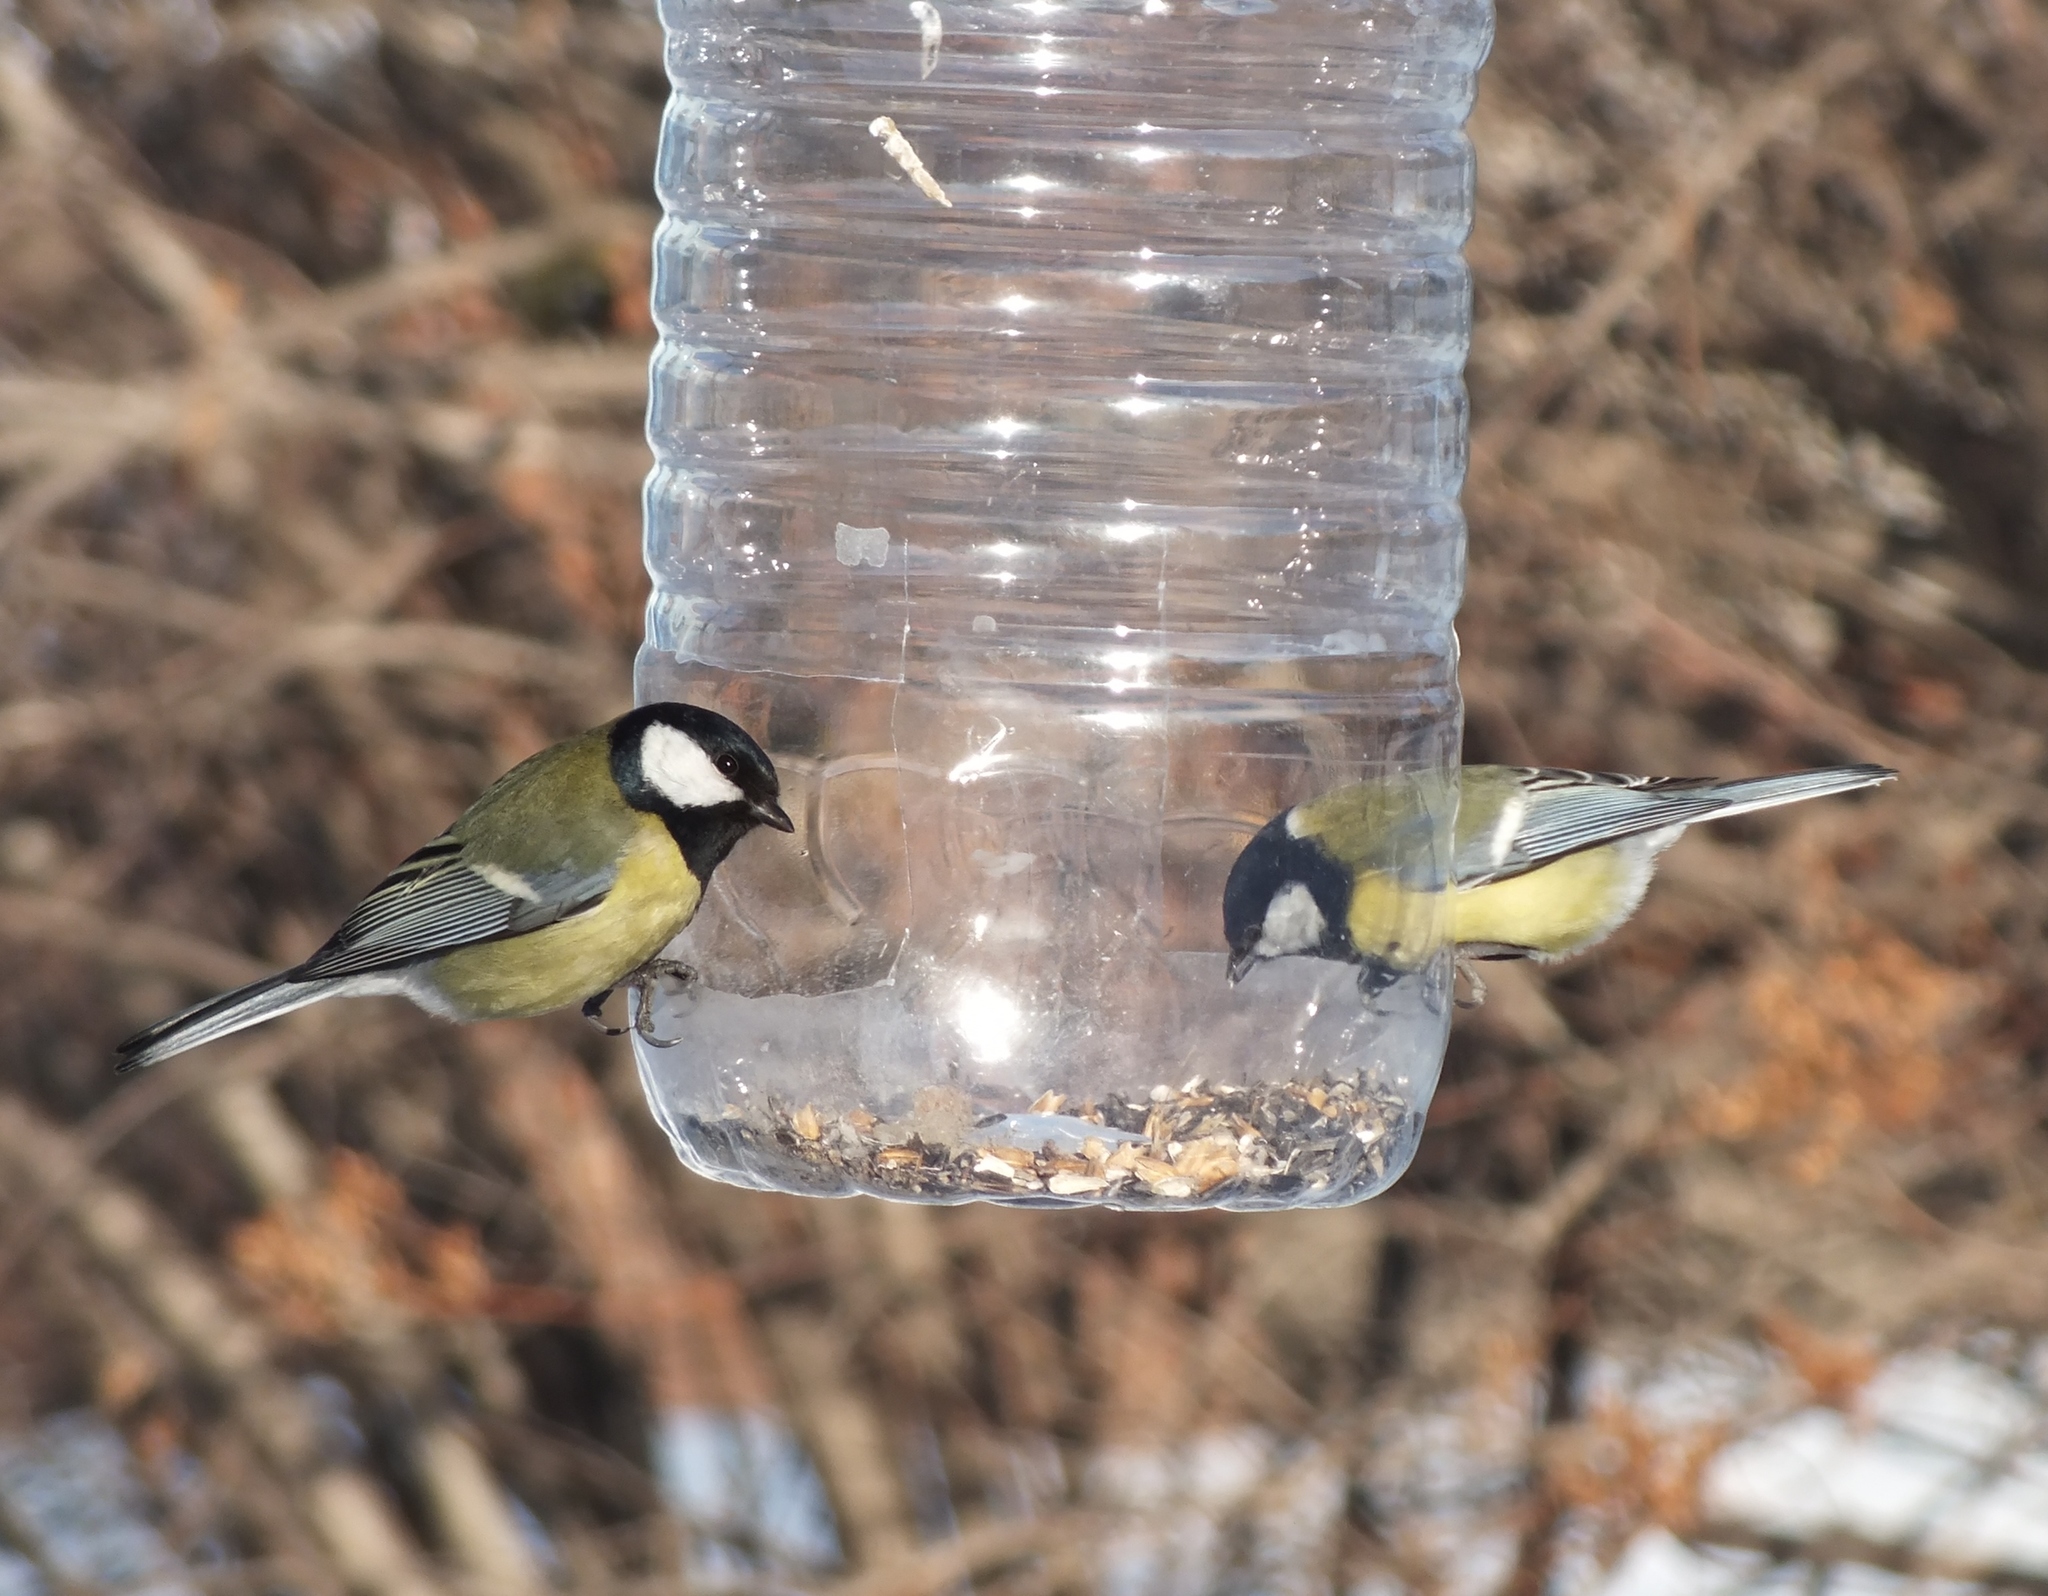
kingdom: Animalia
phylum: Chordata
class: Aves
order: Passeriformes
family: Paridae
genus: Parus
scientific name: Parus major
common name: Great tit
